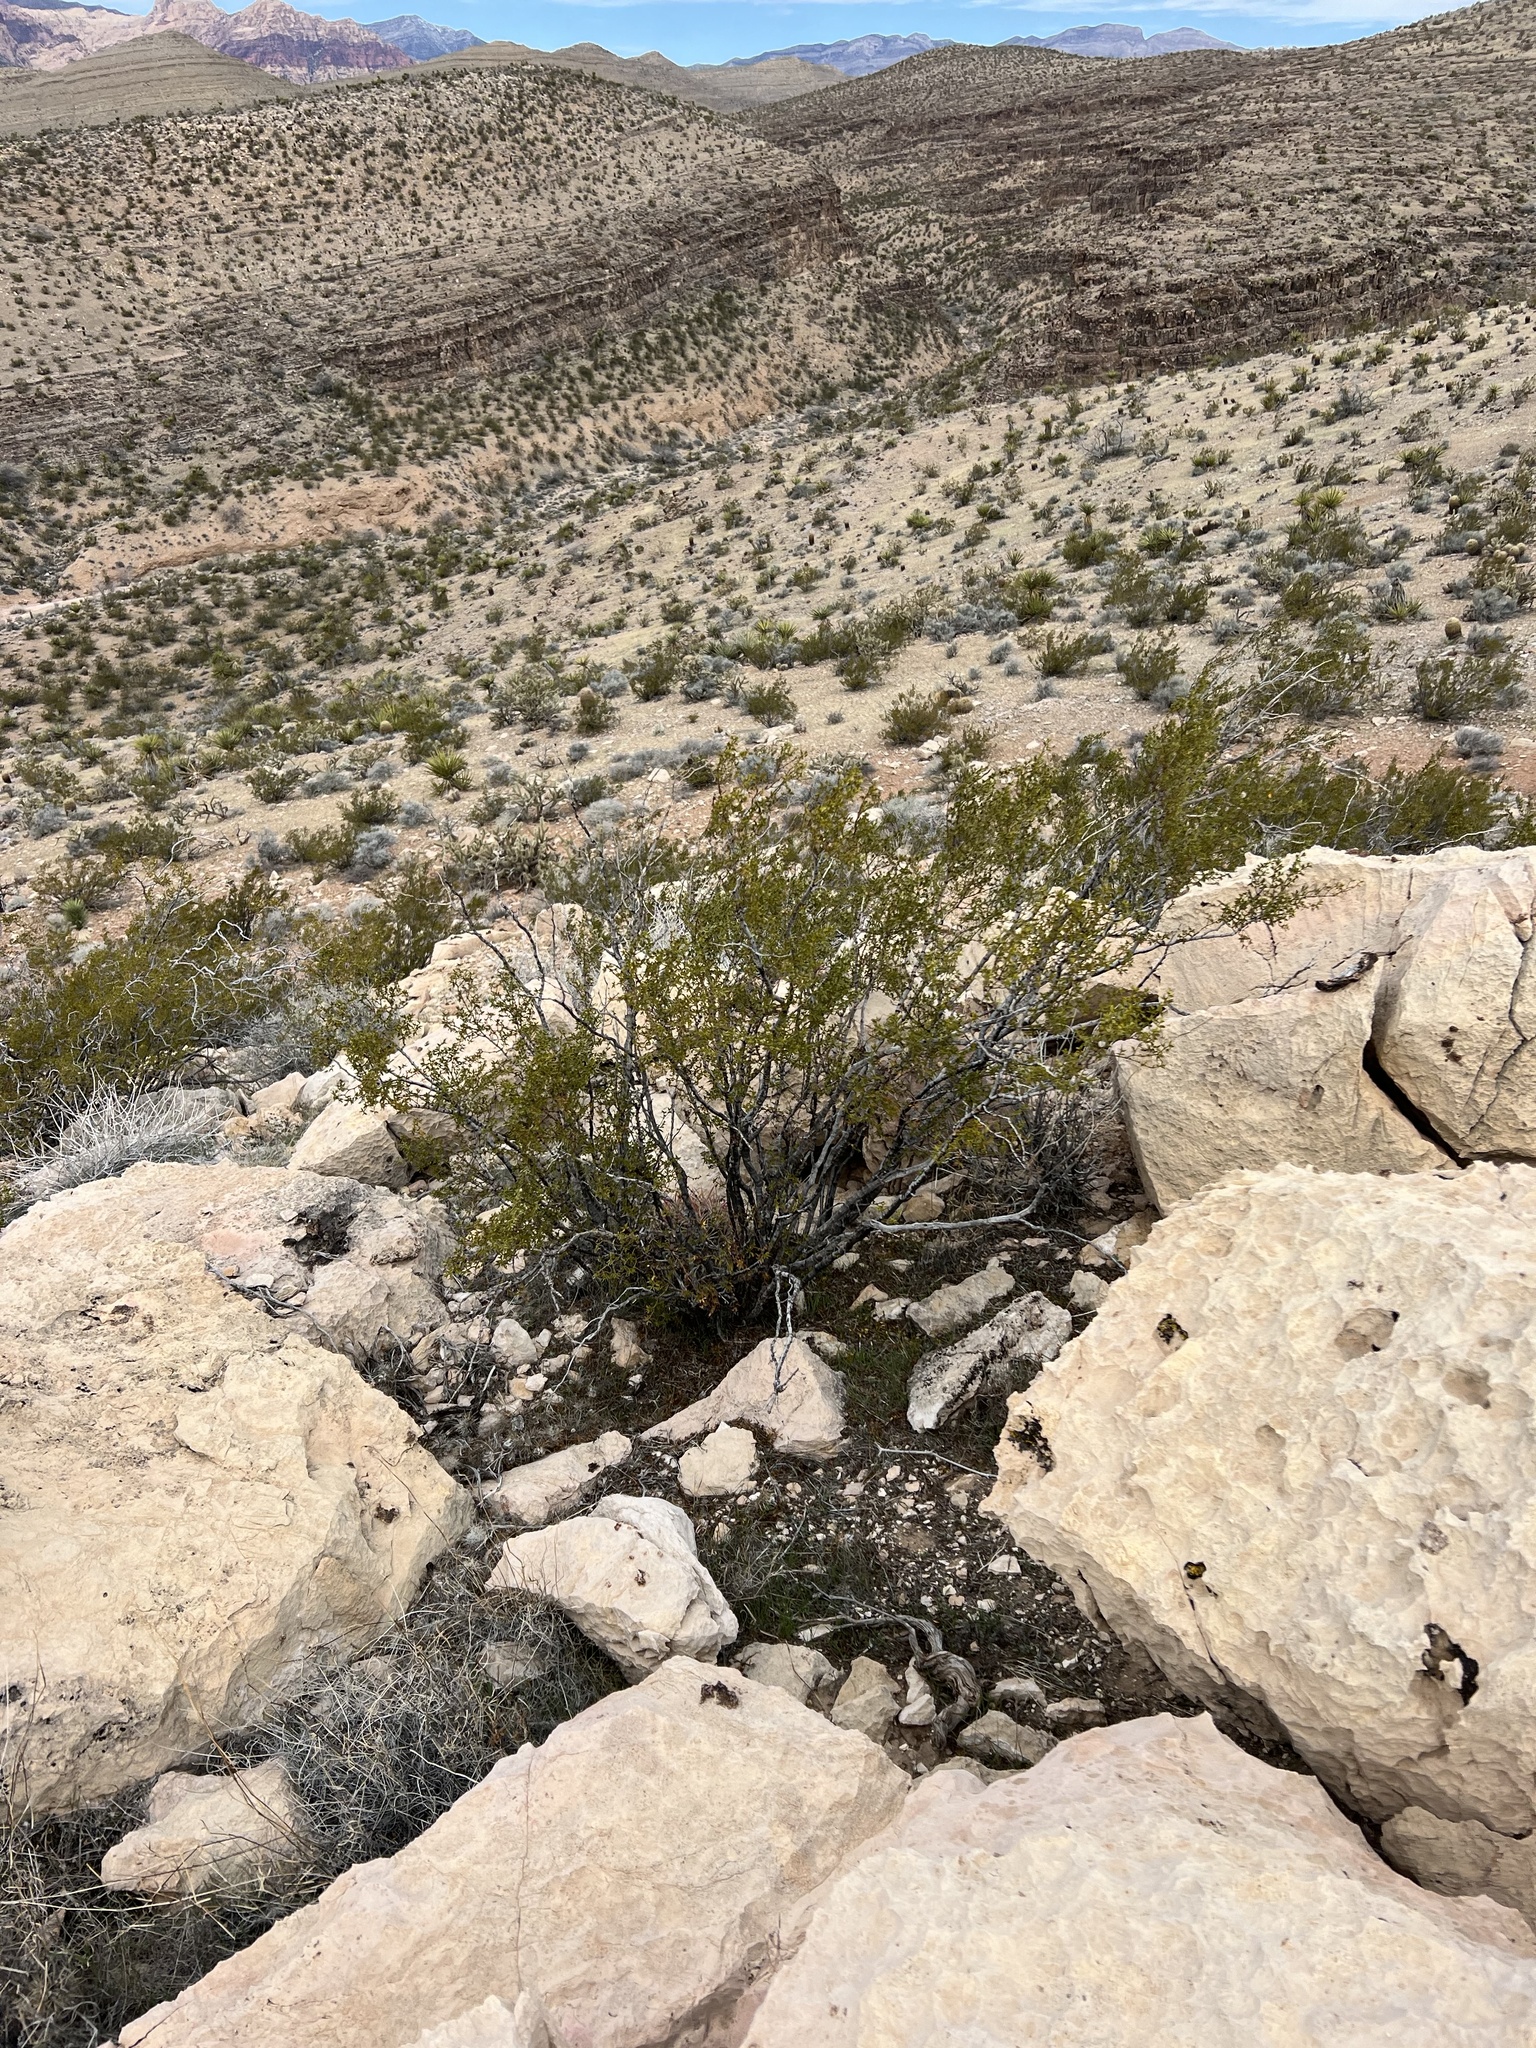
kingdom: Plantae
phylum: Tracheophyta
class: Magnoliopsida
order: Zygophyllales
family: Zygophyllaceae
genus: Larrea
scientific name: Larrea tridentata
